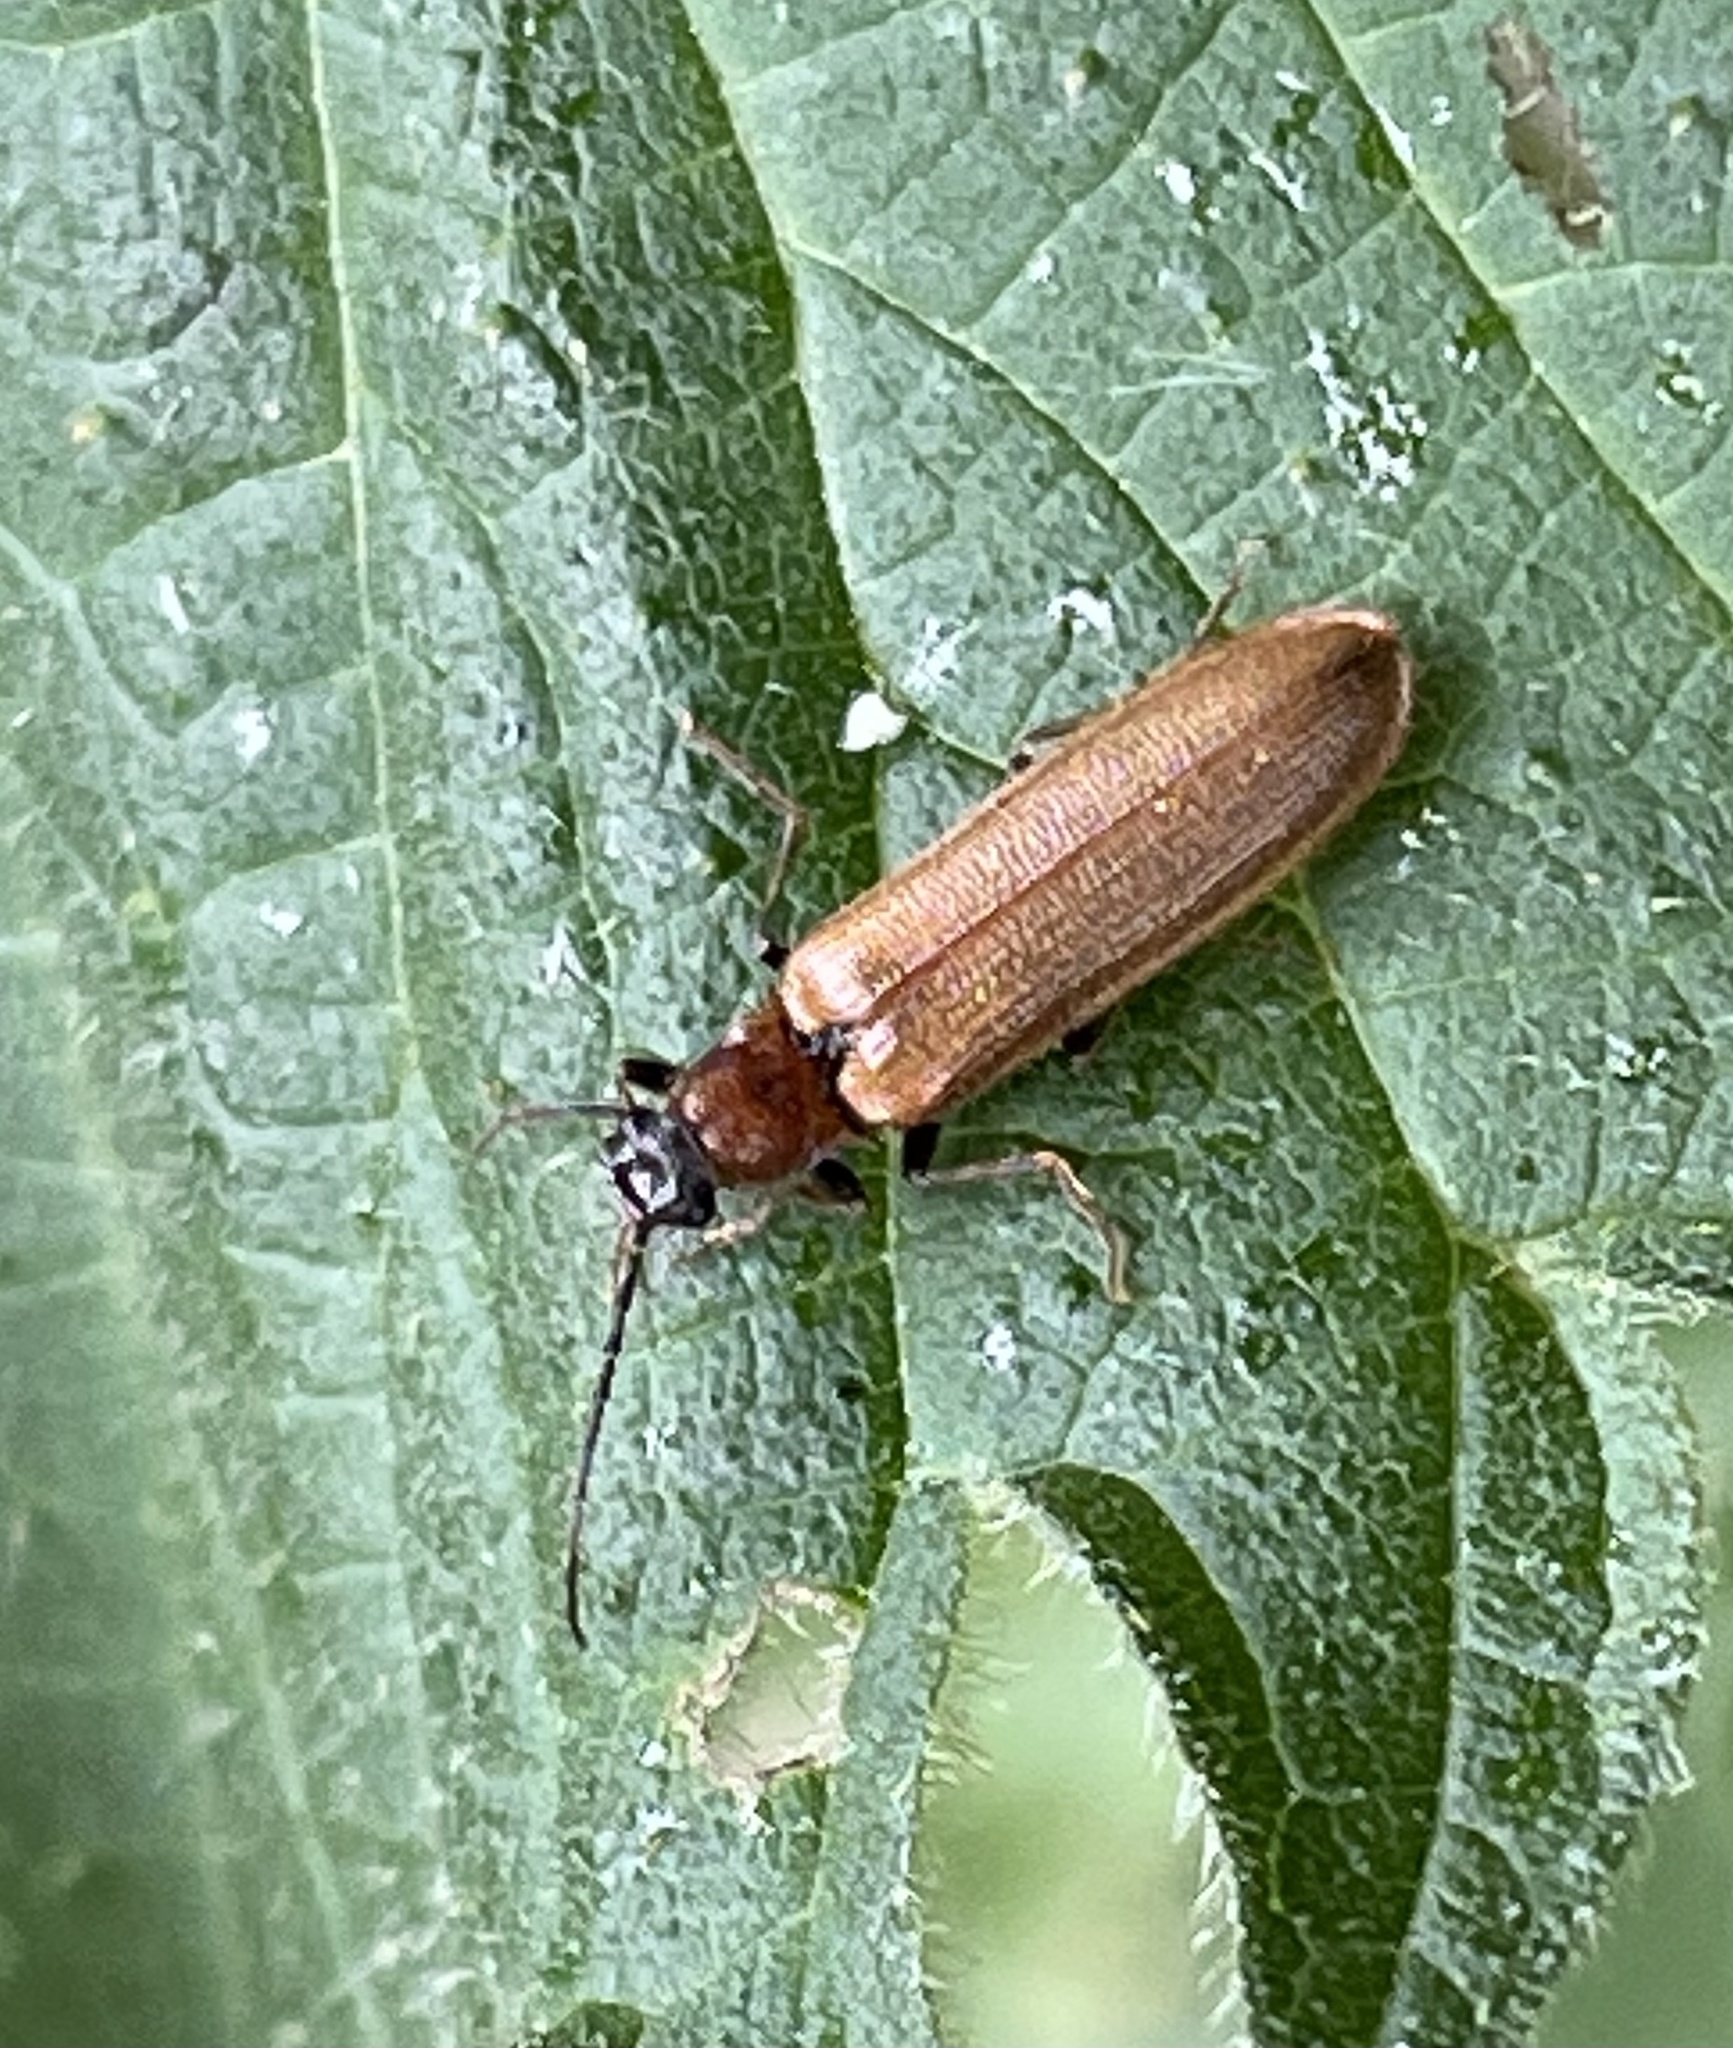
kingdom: Animalia
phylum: Arthropoda
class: Insecta
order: Coleoptera
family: Elateridae
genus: Denticollis
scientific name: Denticollis linearis
